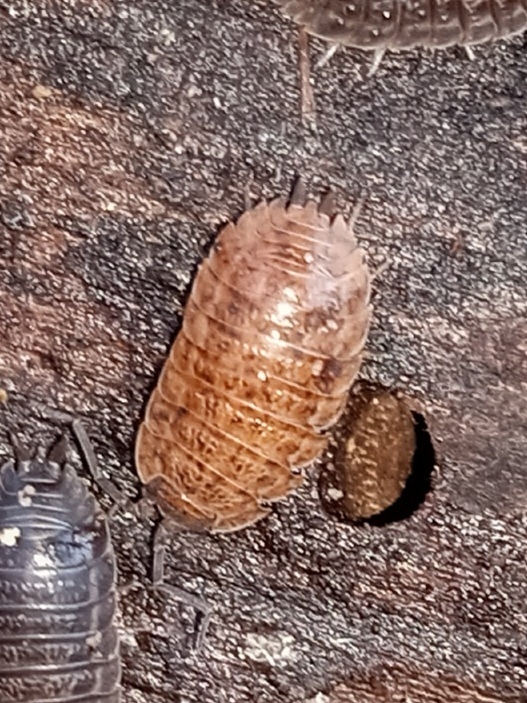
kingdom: Animalia
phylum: Arthropoda
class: Malacostraca
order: Isopoda
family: Trachelipodidae
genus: Trachelipus
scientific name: Trachelipus rathkii
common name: Isopod
